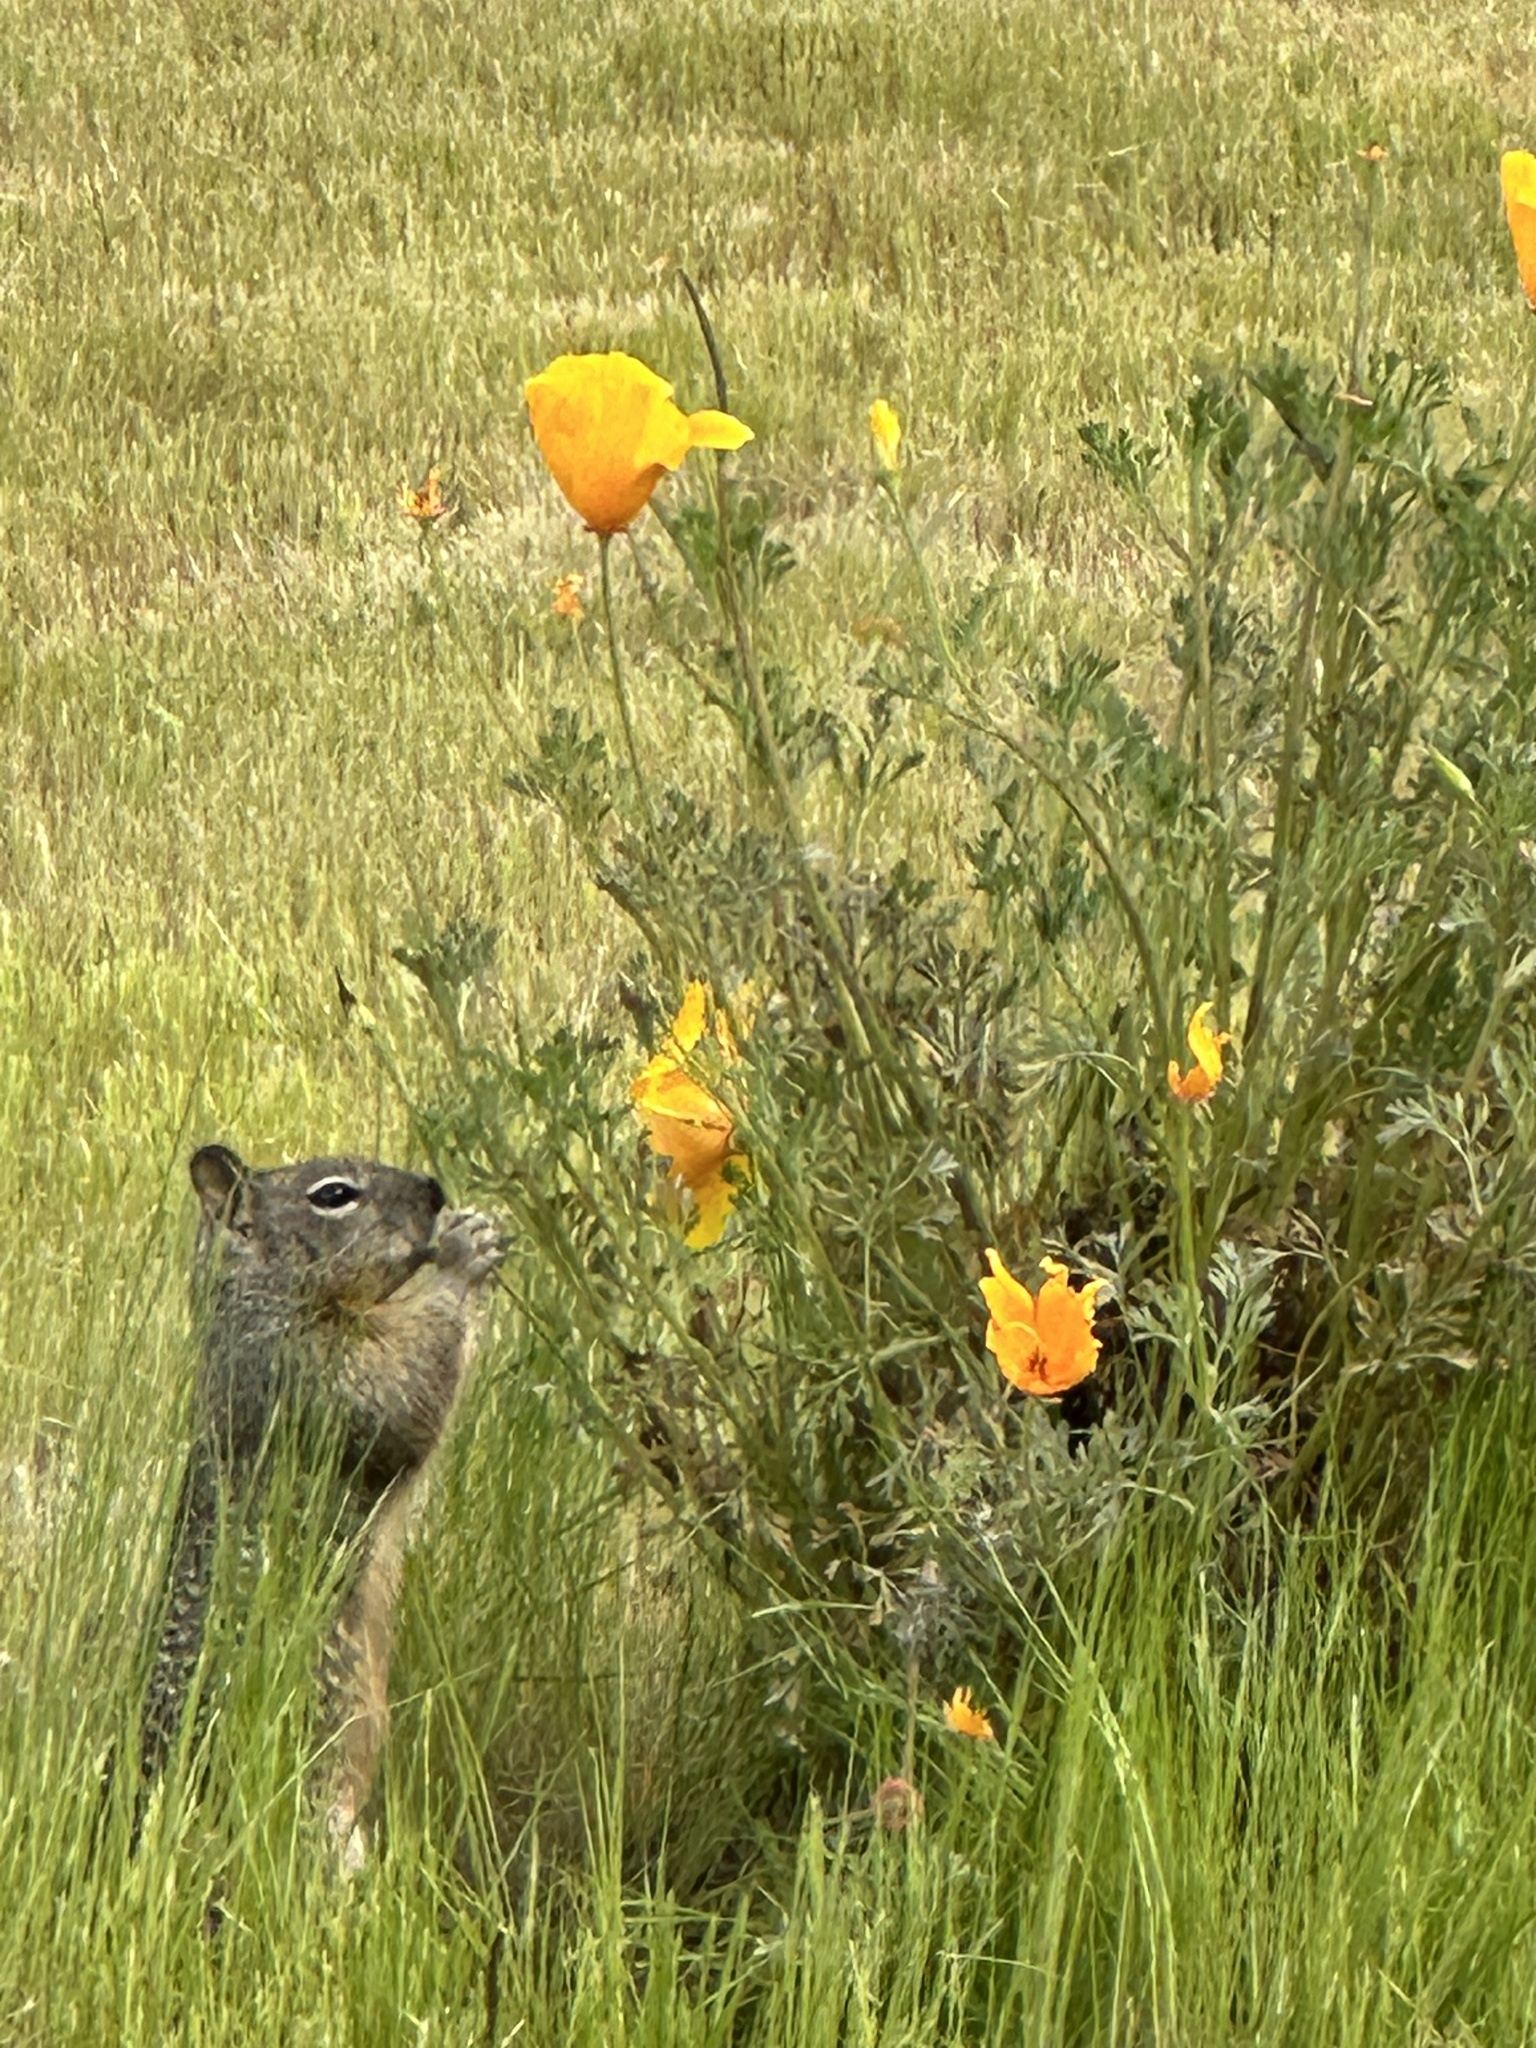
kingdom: Animalia
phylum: Chordata
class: Mammalia
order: Rodentia
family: Sciuridae
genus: Otospermophilus
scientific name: Otospermophilus beecheyi
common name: California ground squirrel
